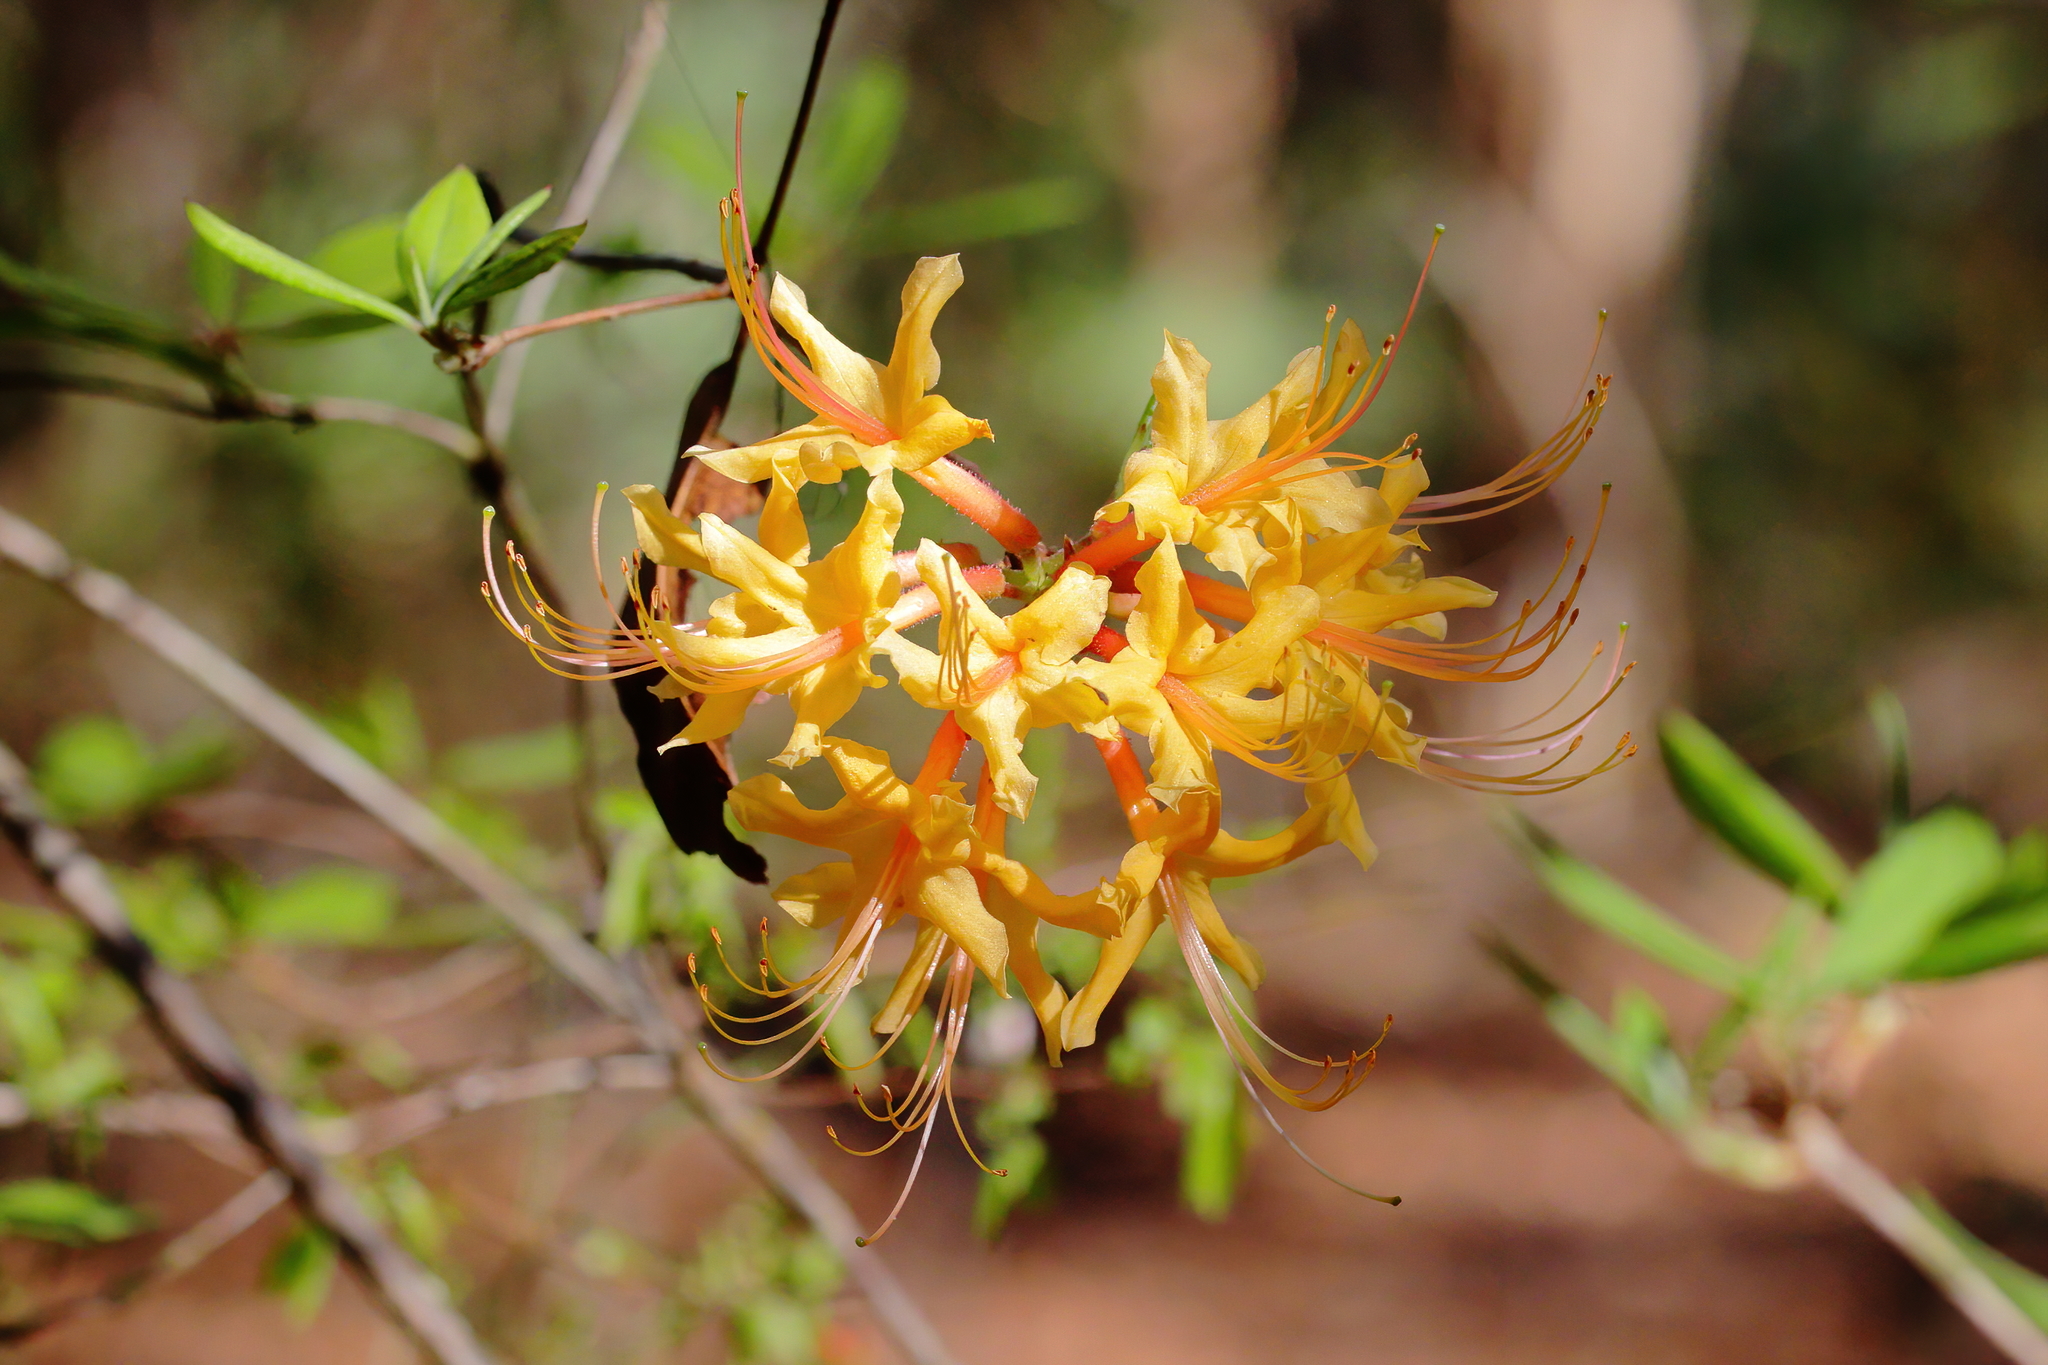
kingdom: Plantae
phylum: Tracheophyta
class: Magnoliopsida
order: Ericales
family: Ericaceae
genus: Rhododendron
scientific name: Rhododendron austrinum
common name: Florida azalea
